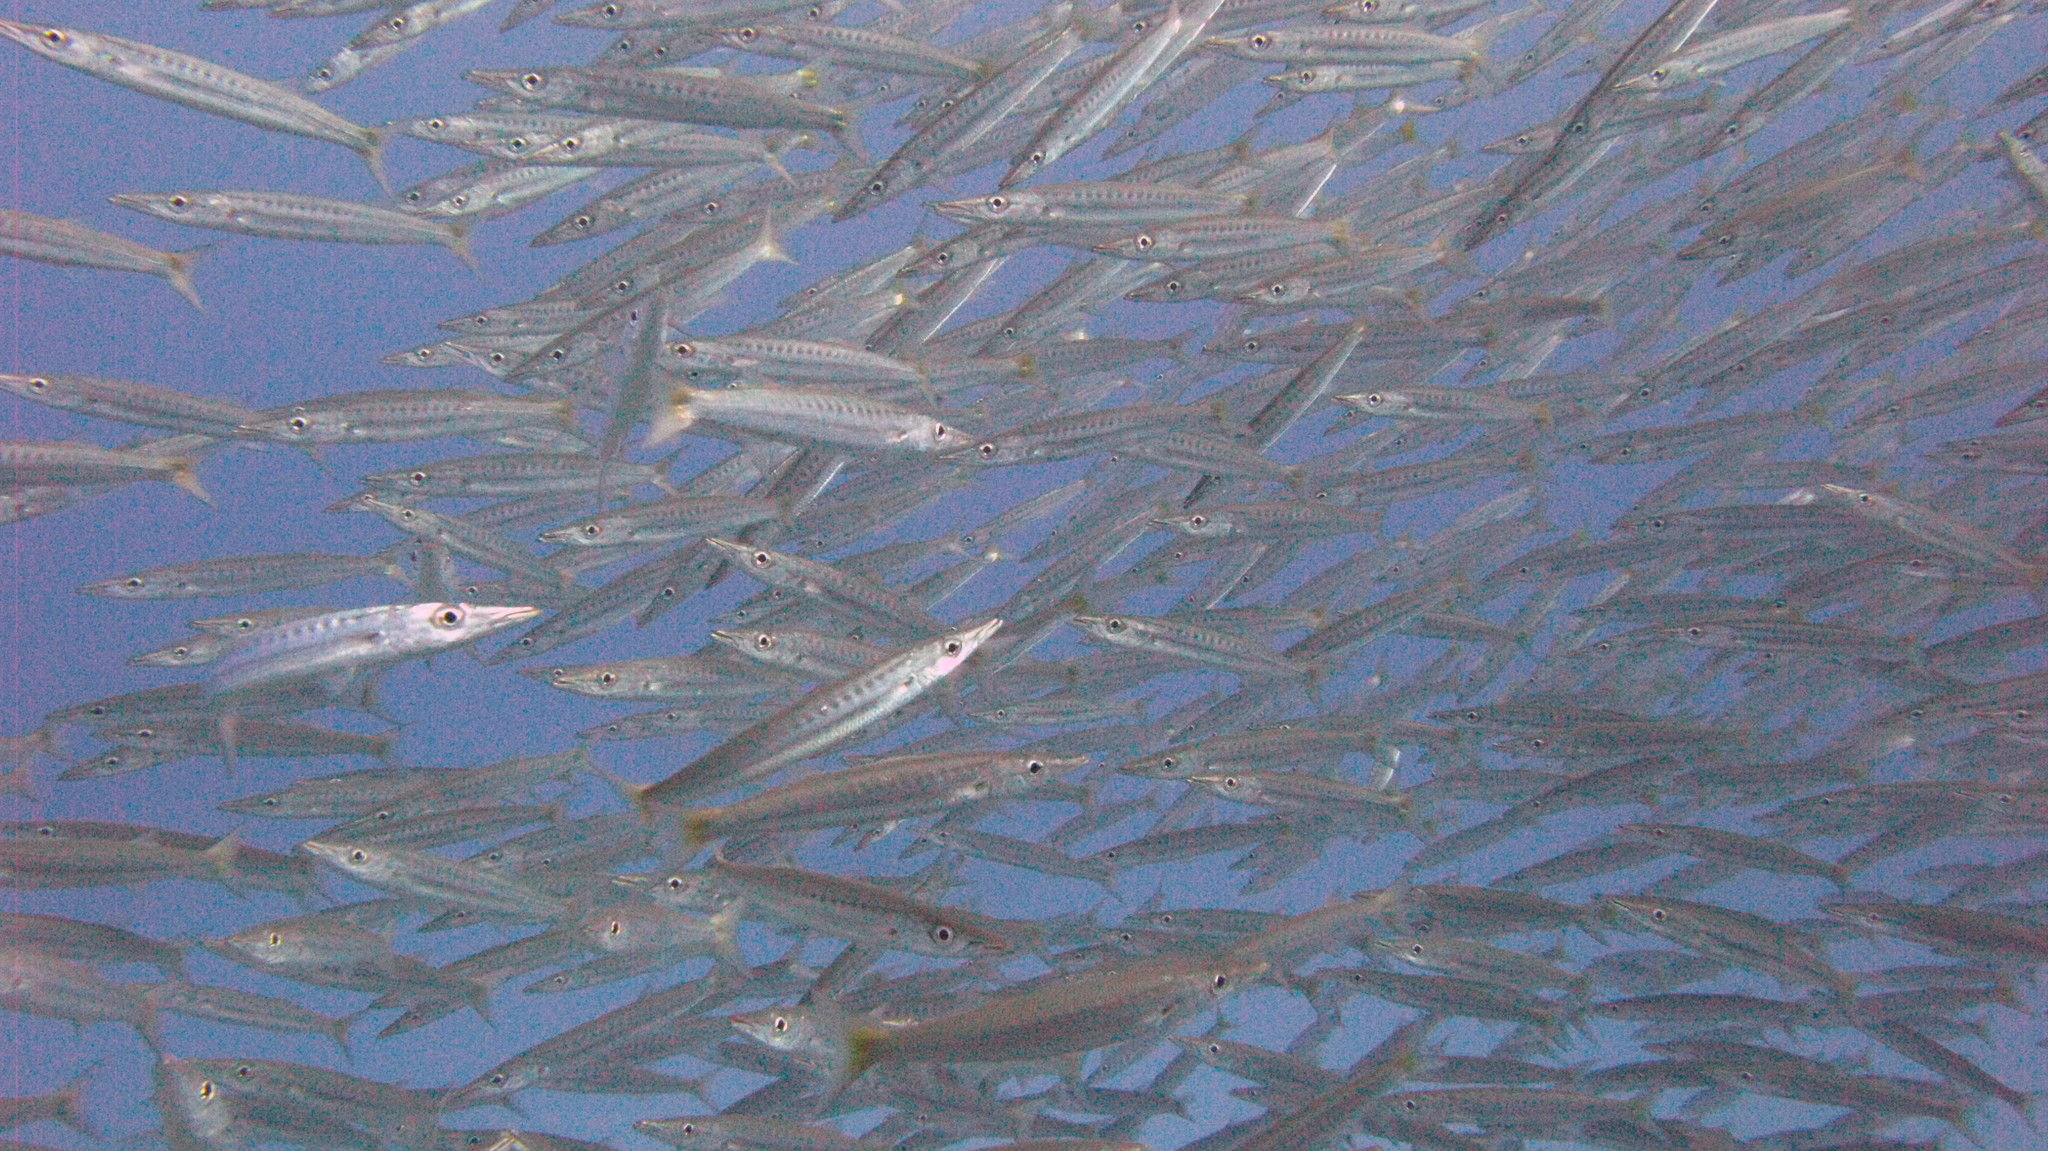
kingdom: Animalia
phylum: Chordata
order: Perciformes
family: Sphyraenidae
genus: Sphyraena
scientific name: Sphyraena flavicauda
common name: Yellowtail barracuda
